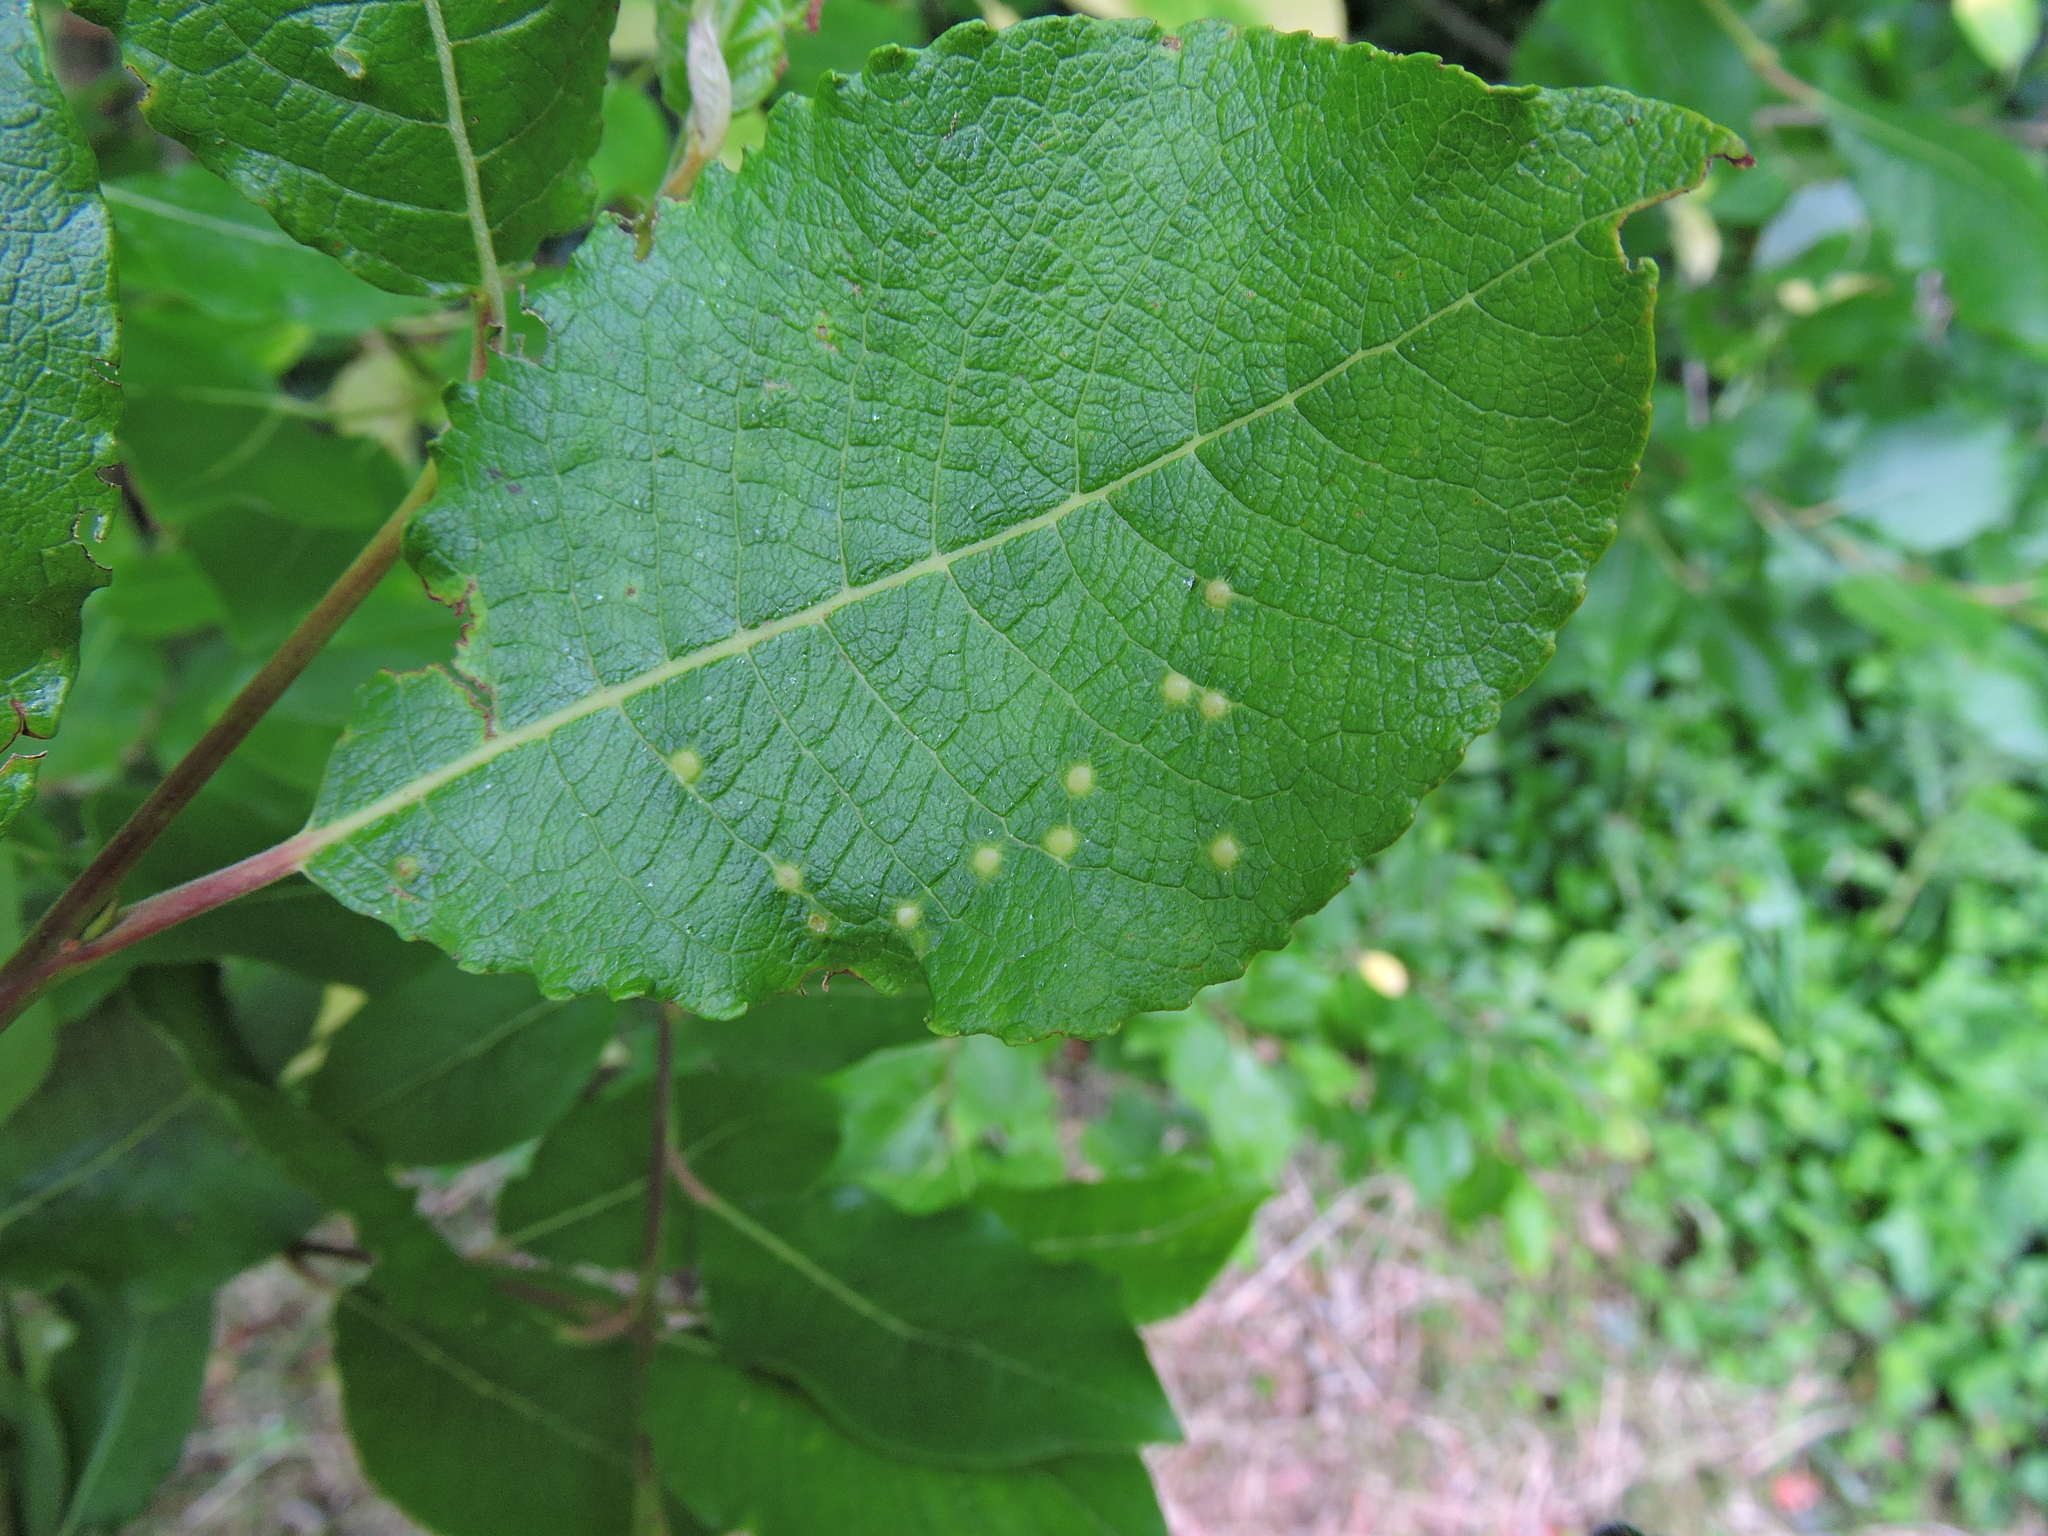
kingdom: Animalia
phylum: Arthropoda
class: Insecta
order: Diptera
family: Cecidomyiidae
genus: Iteomyia
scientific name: Iteomyia capreae
